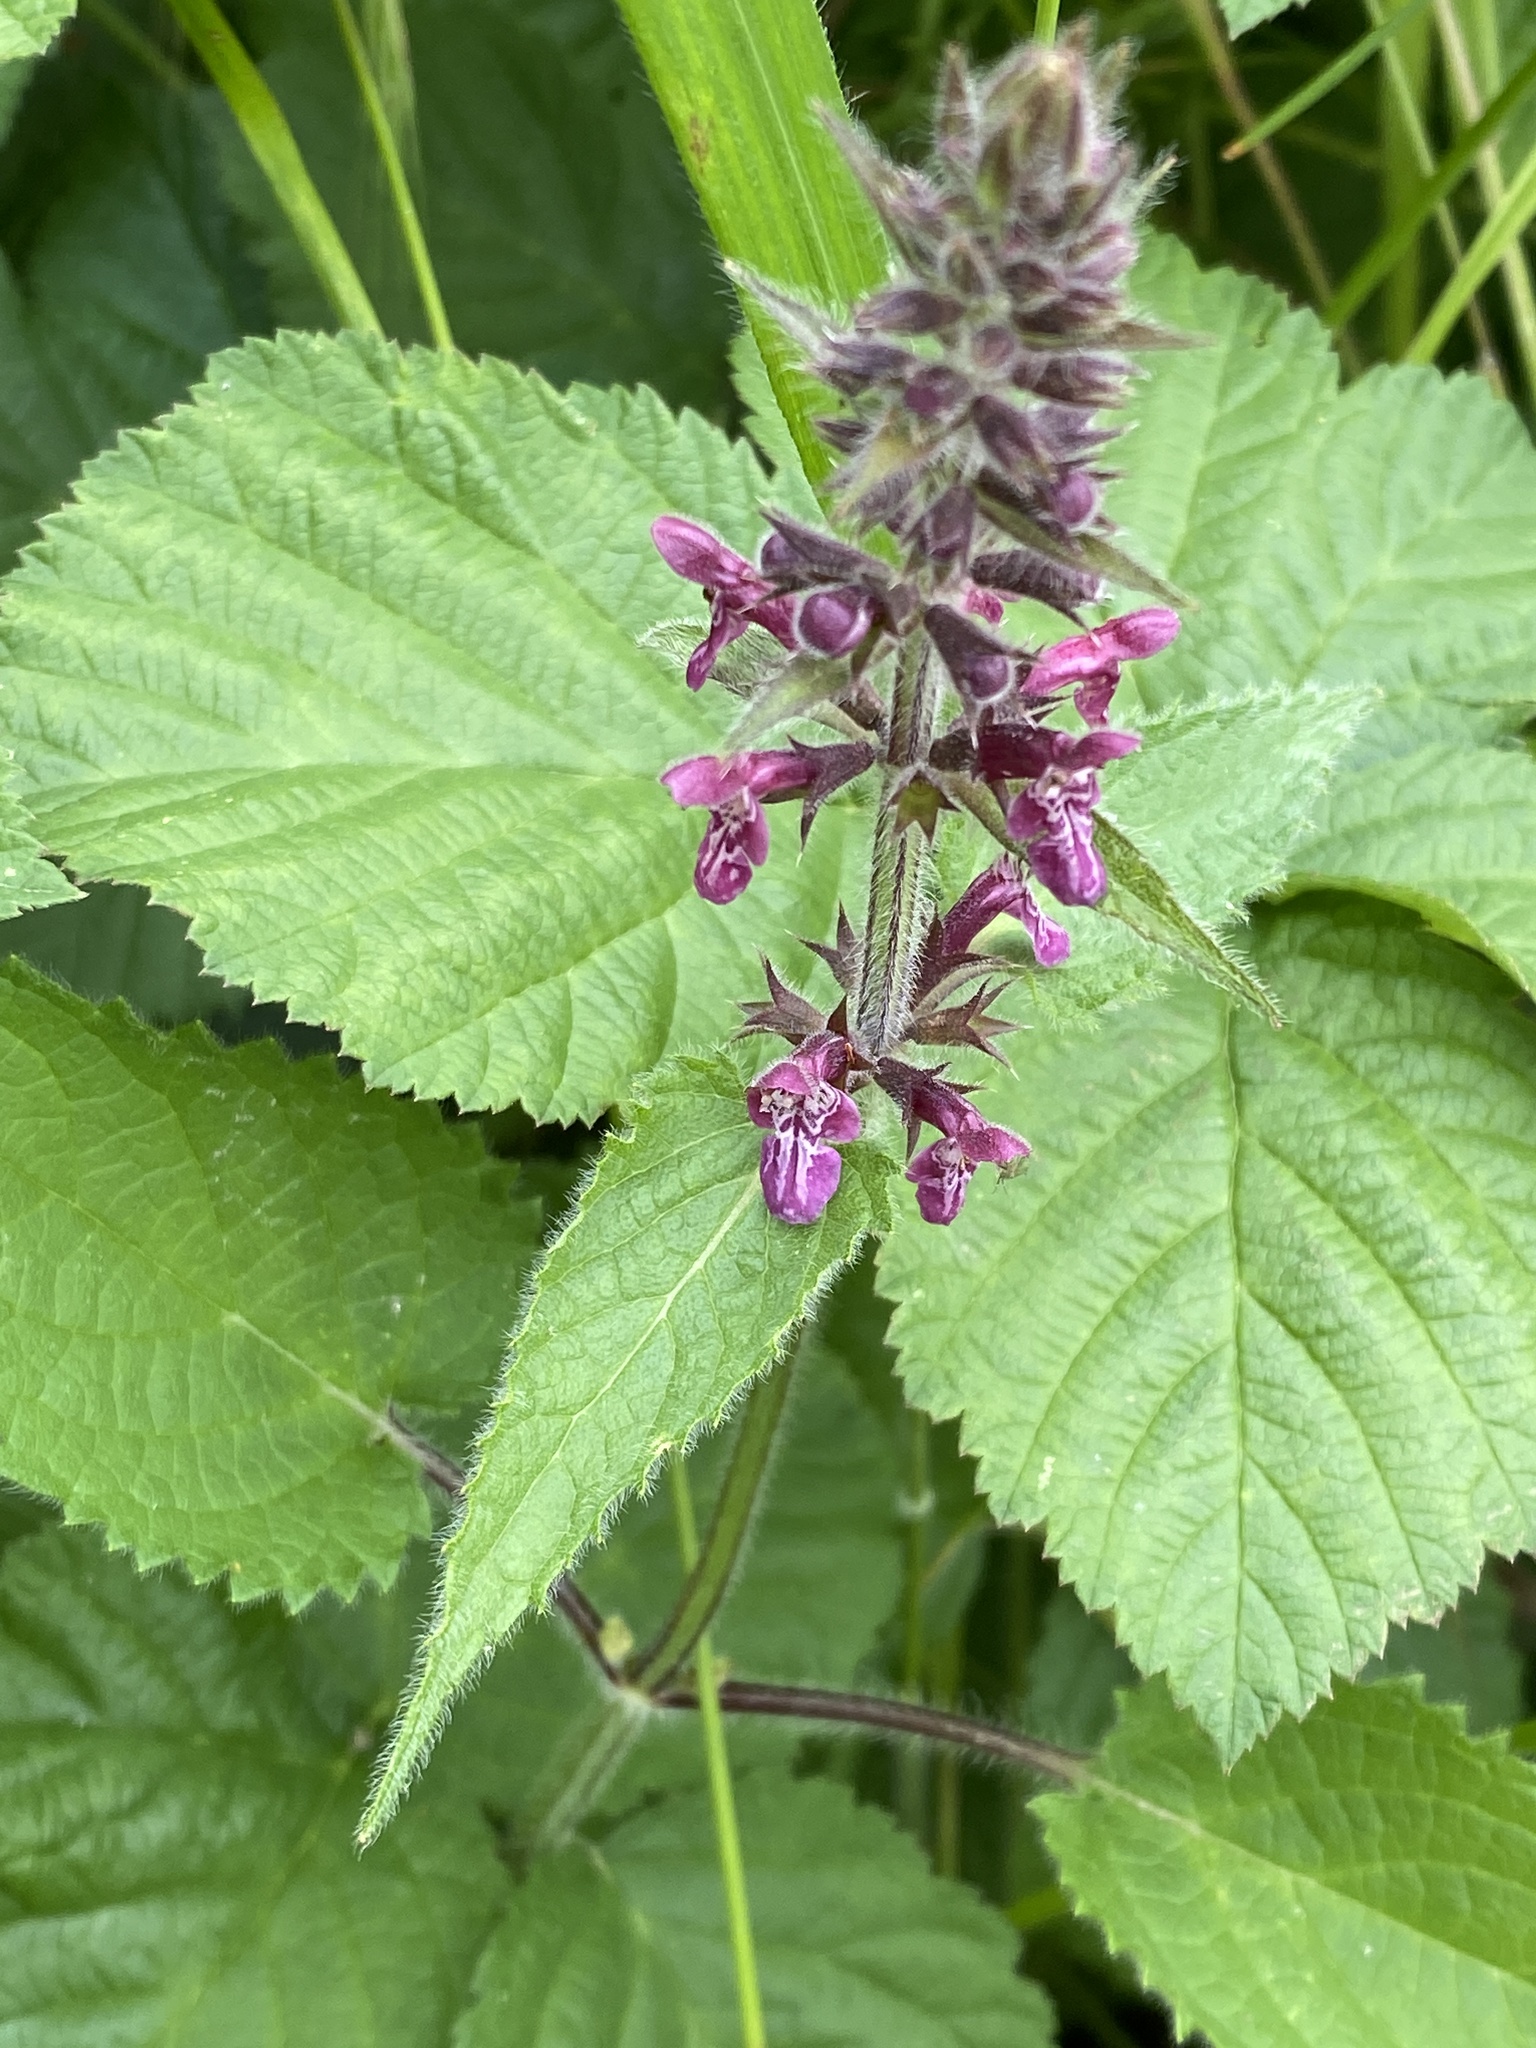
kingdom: Plantae
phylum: Tracheophyta
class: Magnoliopsida
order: Lamiales
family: Lamiaceae
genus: Stachys
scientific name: Stachys sylvatica
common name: Hedge woundwort
